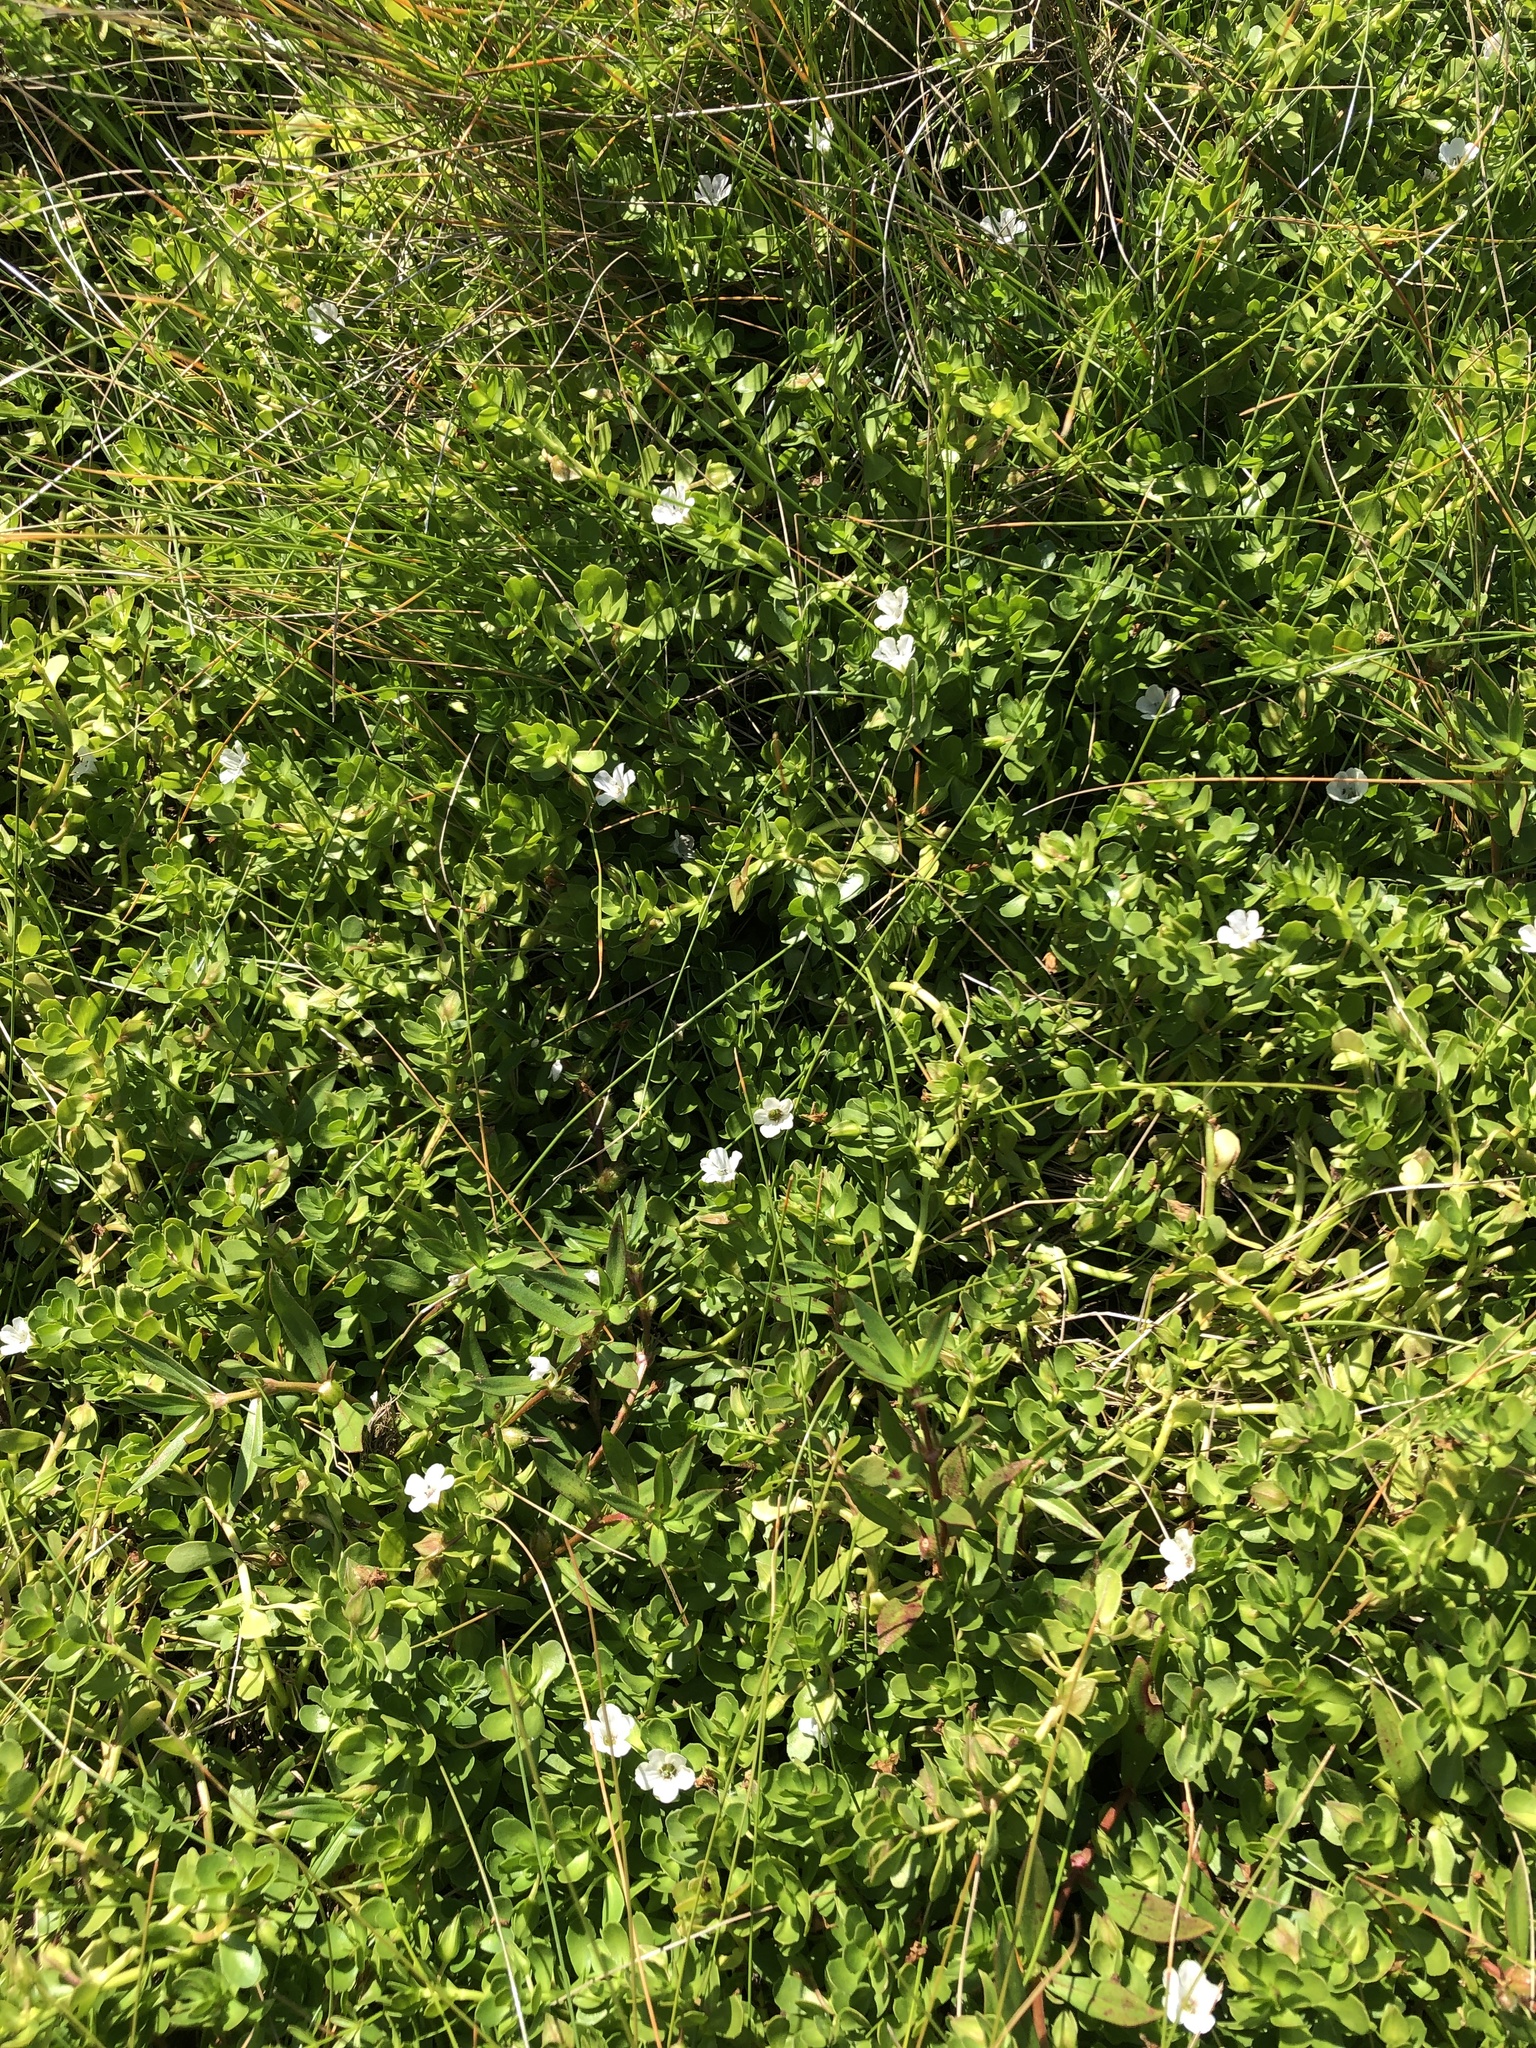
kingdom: Plantae
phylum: Tracheophyta
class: Magnoliopsida
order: Lamiales
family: Plantaginaceae
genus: Bacopa
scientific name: Bacopa monnieri
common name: Indian-pennywort
